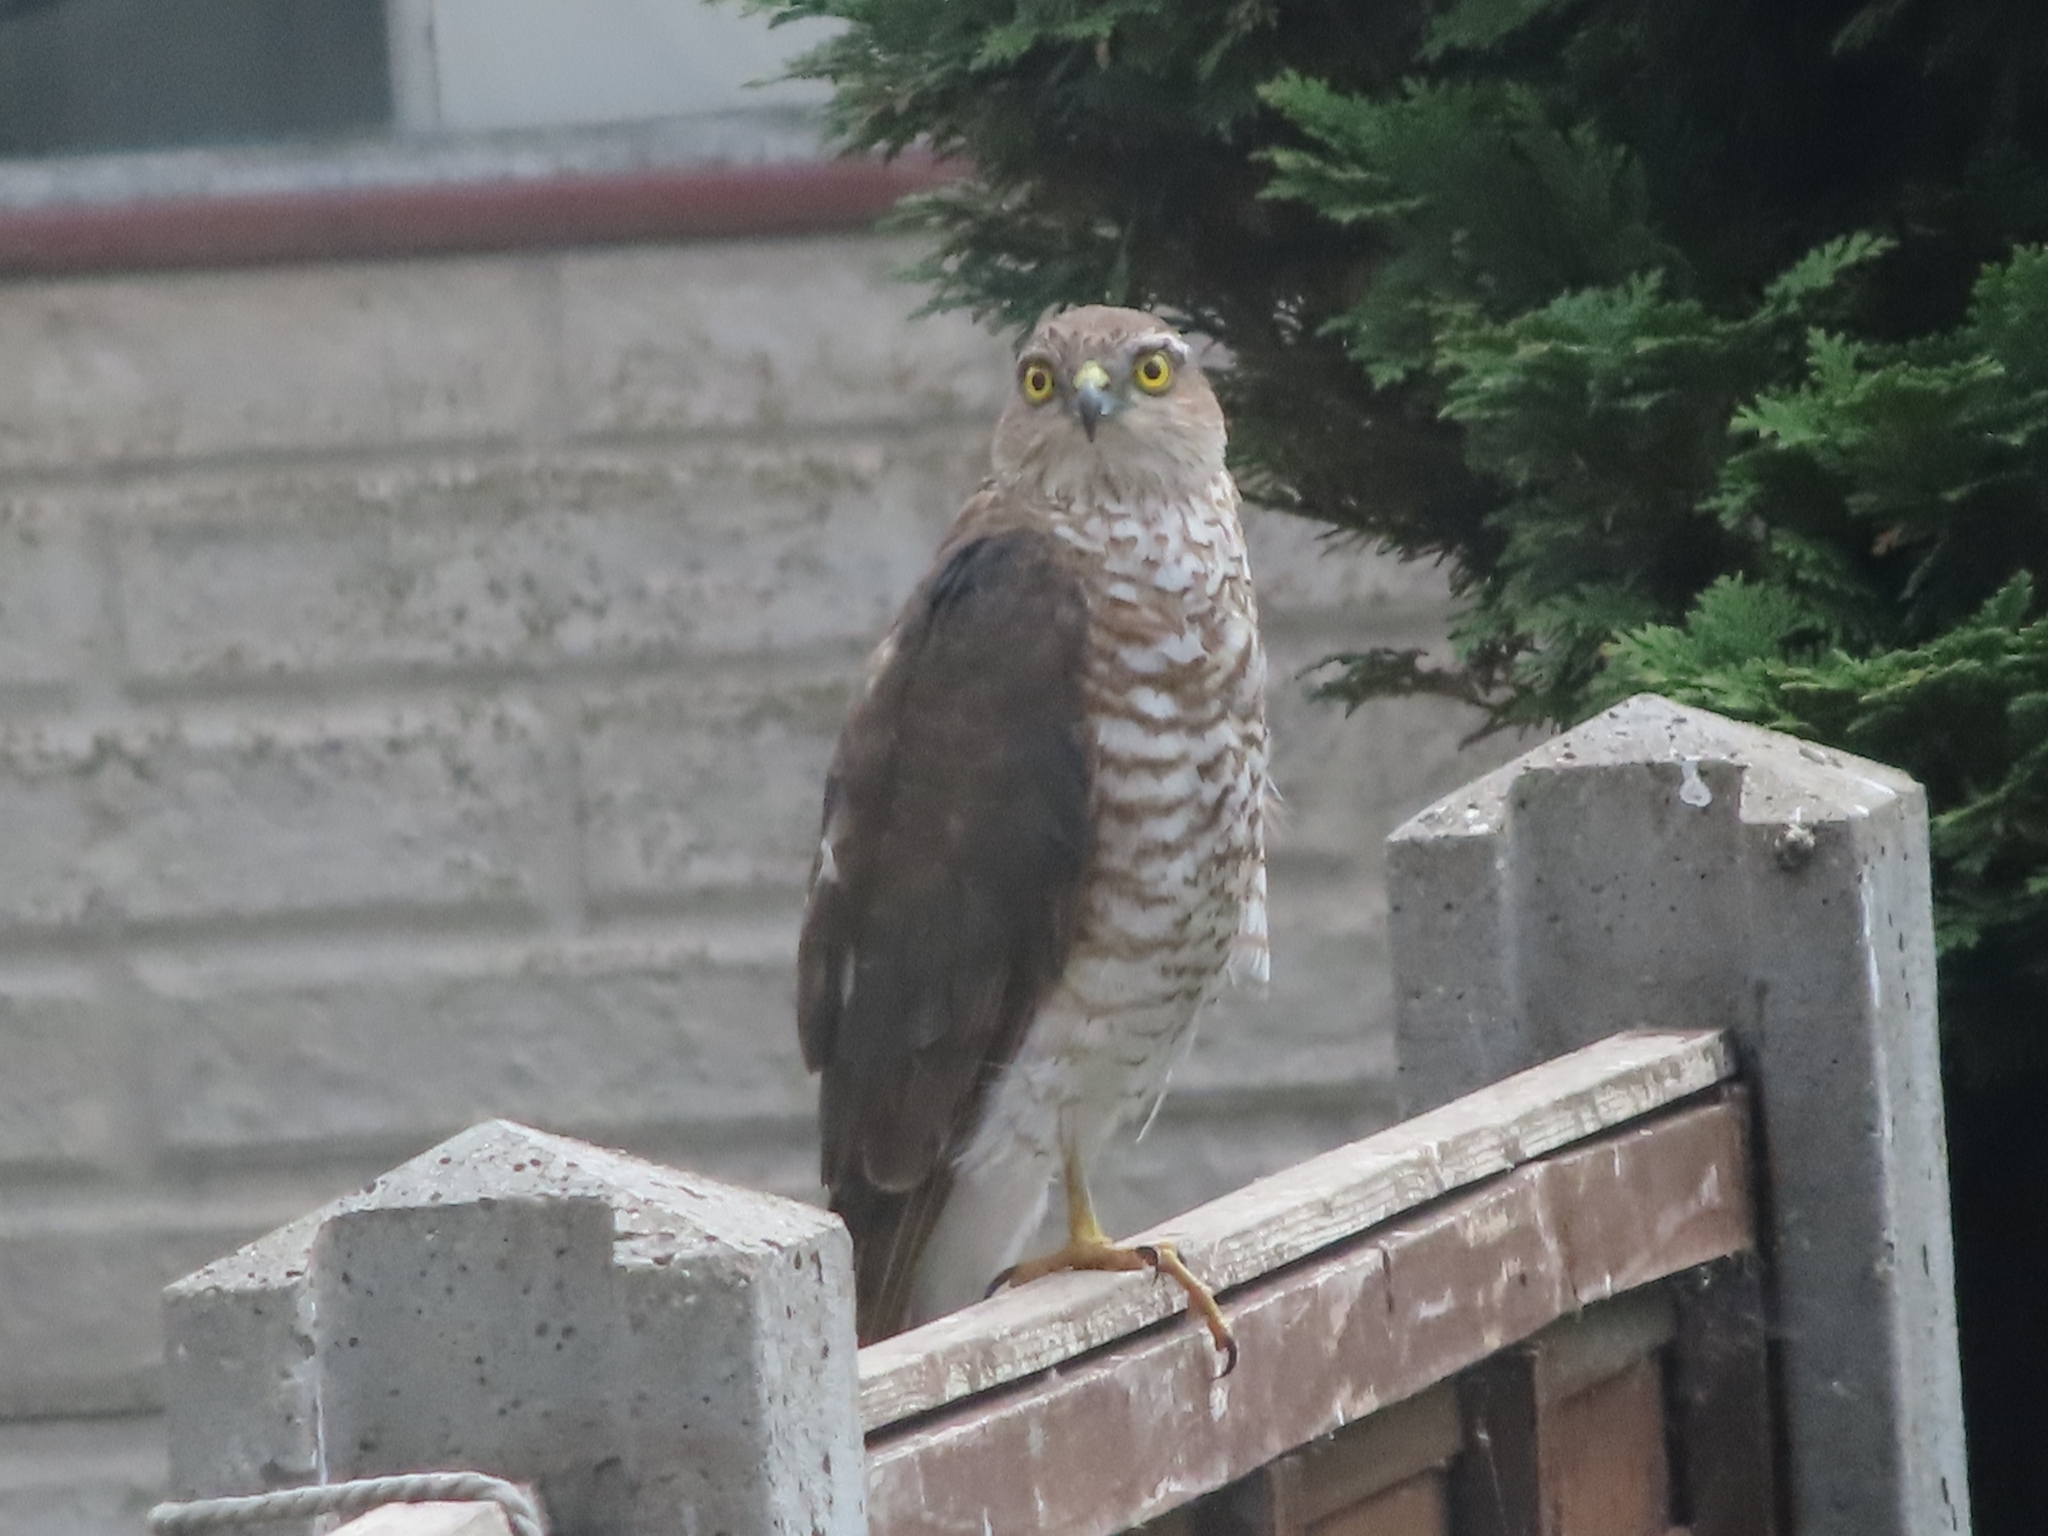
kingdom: Animalia
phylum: Chordata
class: Aves
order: Accipitriformes
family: Accipitridae
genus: Accipiter
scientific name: Accipiter nisus
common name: Eurasian sparrowhawk
